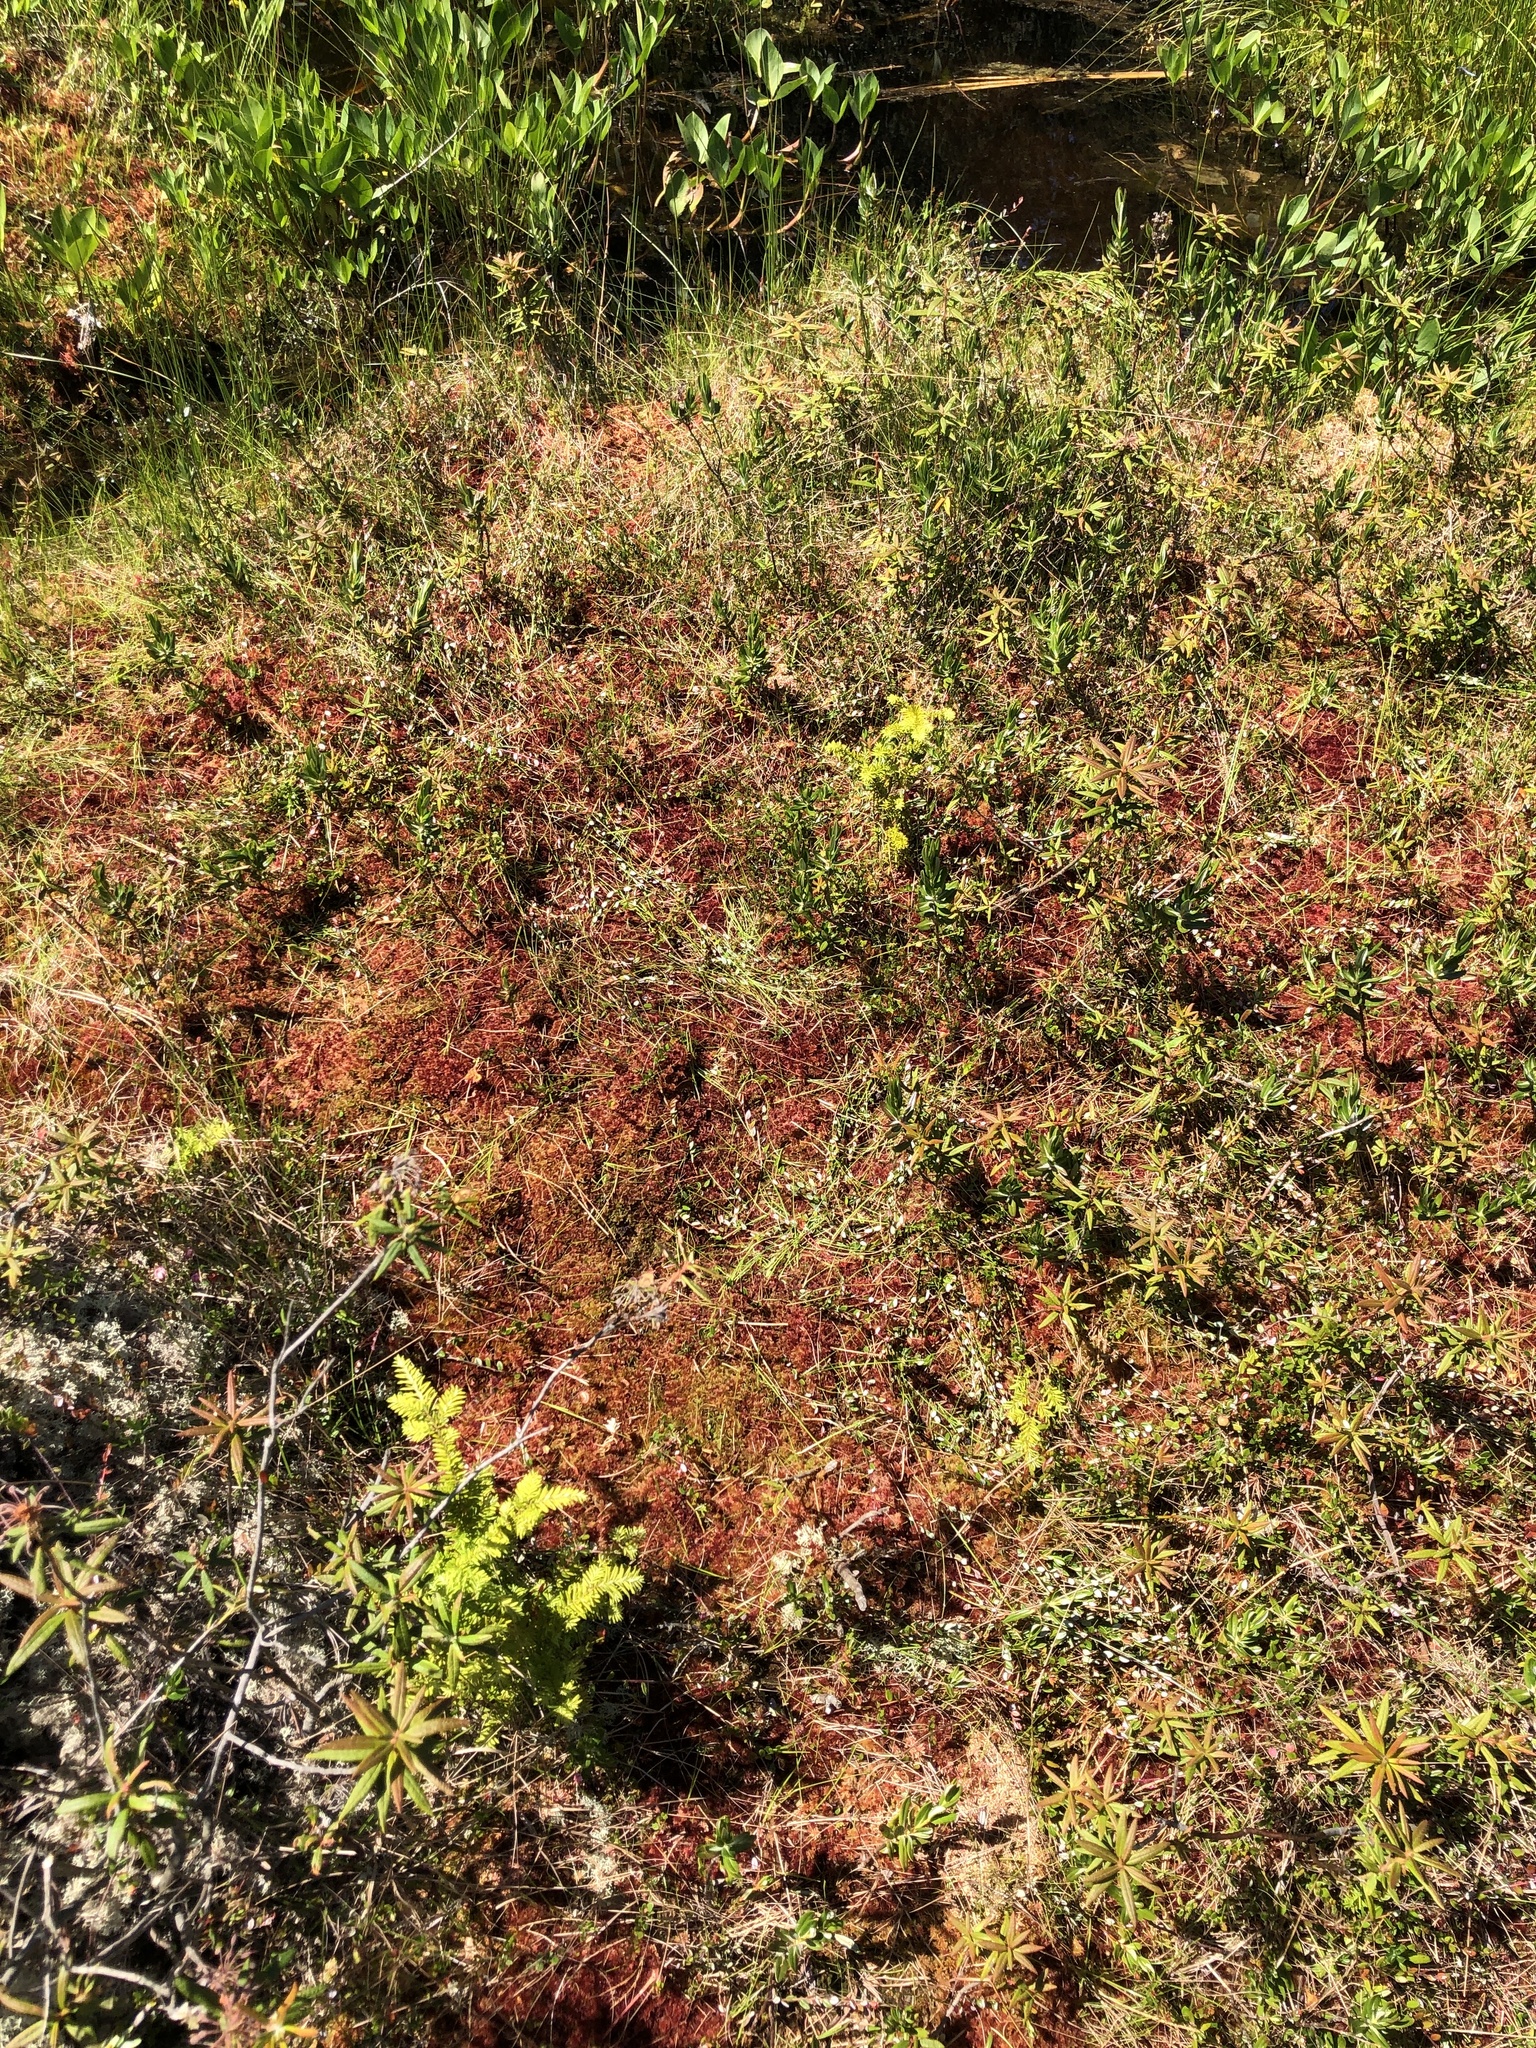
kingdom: Plantae
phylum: Tracheophyta
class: Pinopsida
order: Pinales
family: Pinaceae
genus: Tsuga
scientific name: Tsuga heterophylla
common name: Western hemlock
